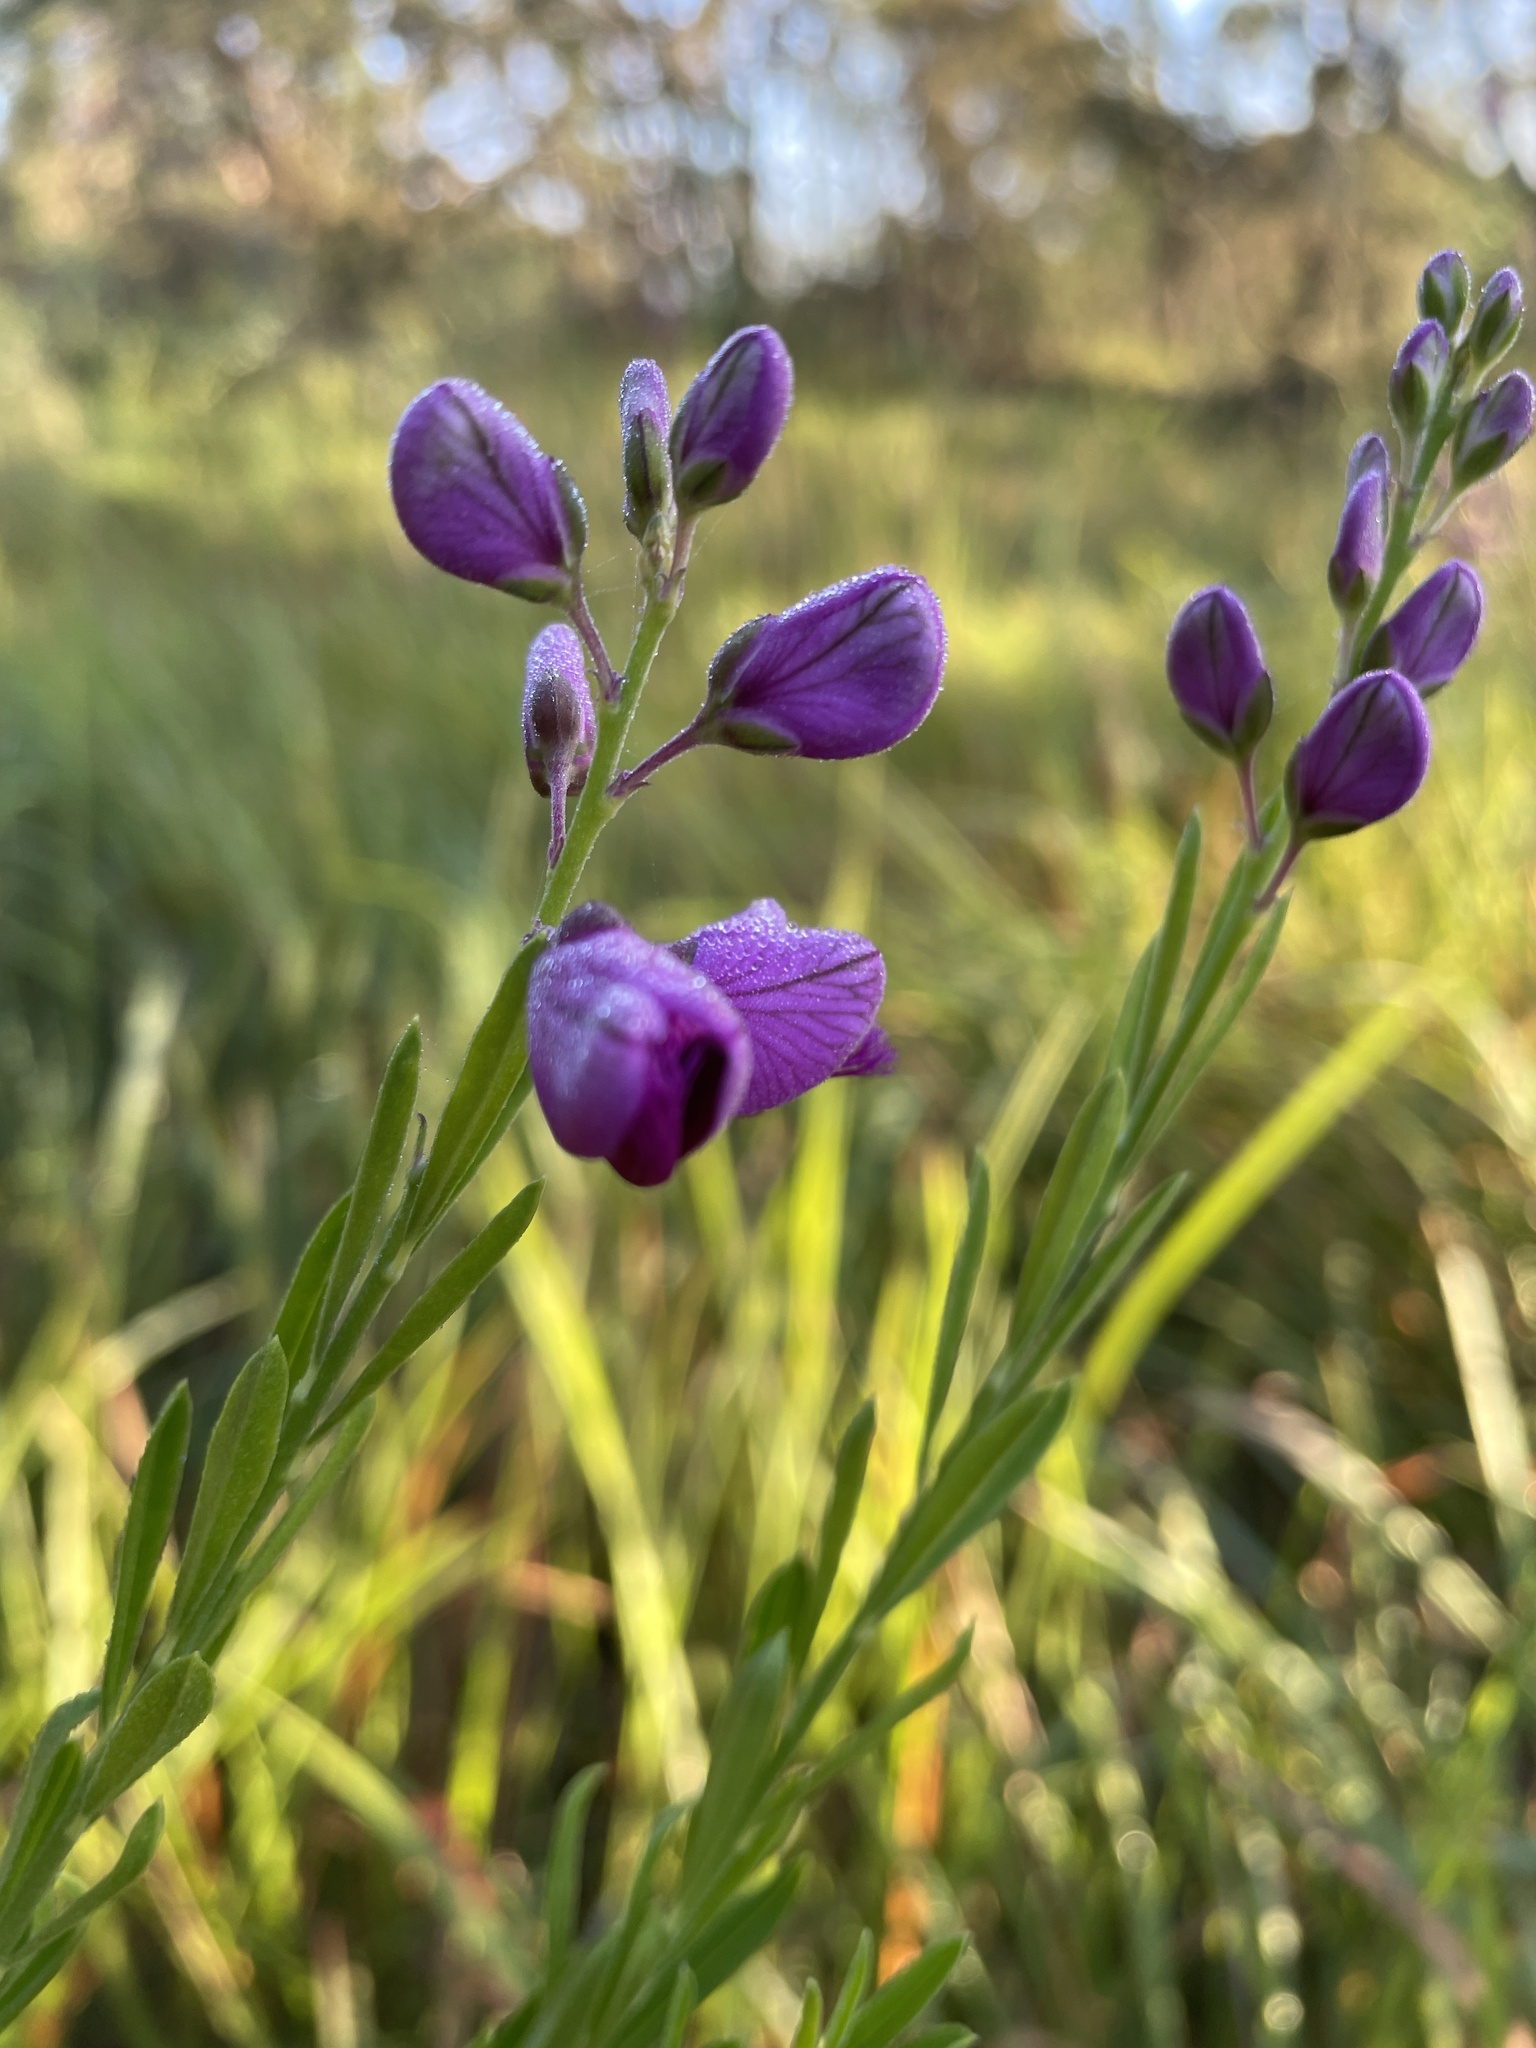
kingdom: Plantae
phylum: Tracheophyta
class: Magnoliopsida
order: Fabales
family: Polygalaceae
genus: Polygala
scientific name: Polygala virgata
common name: Milkwort
